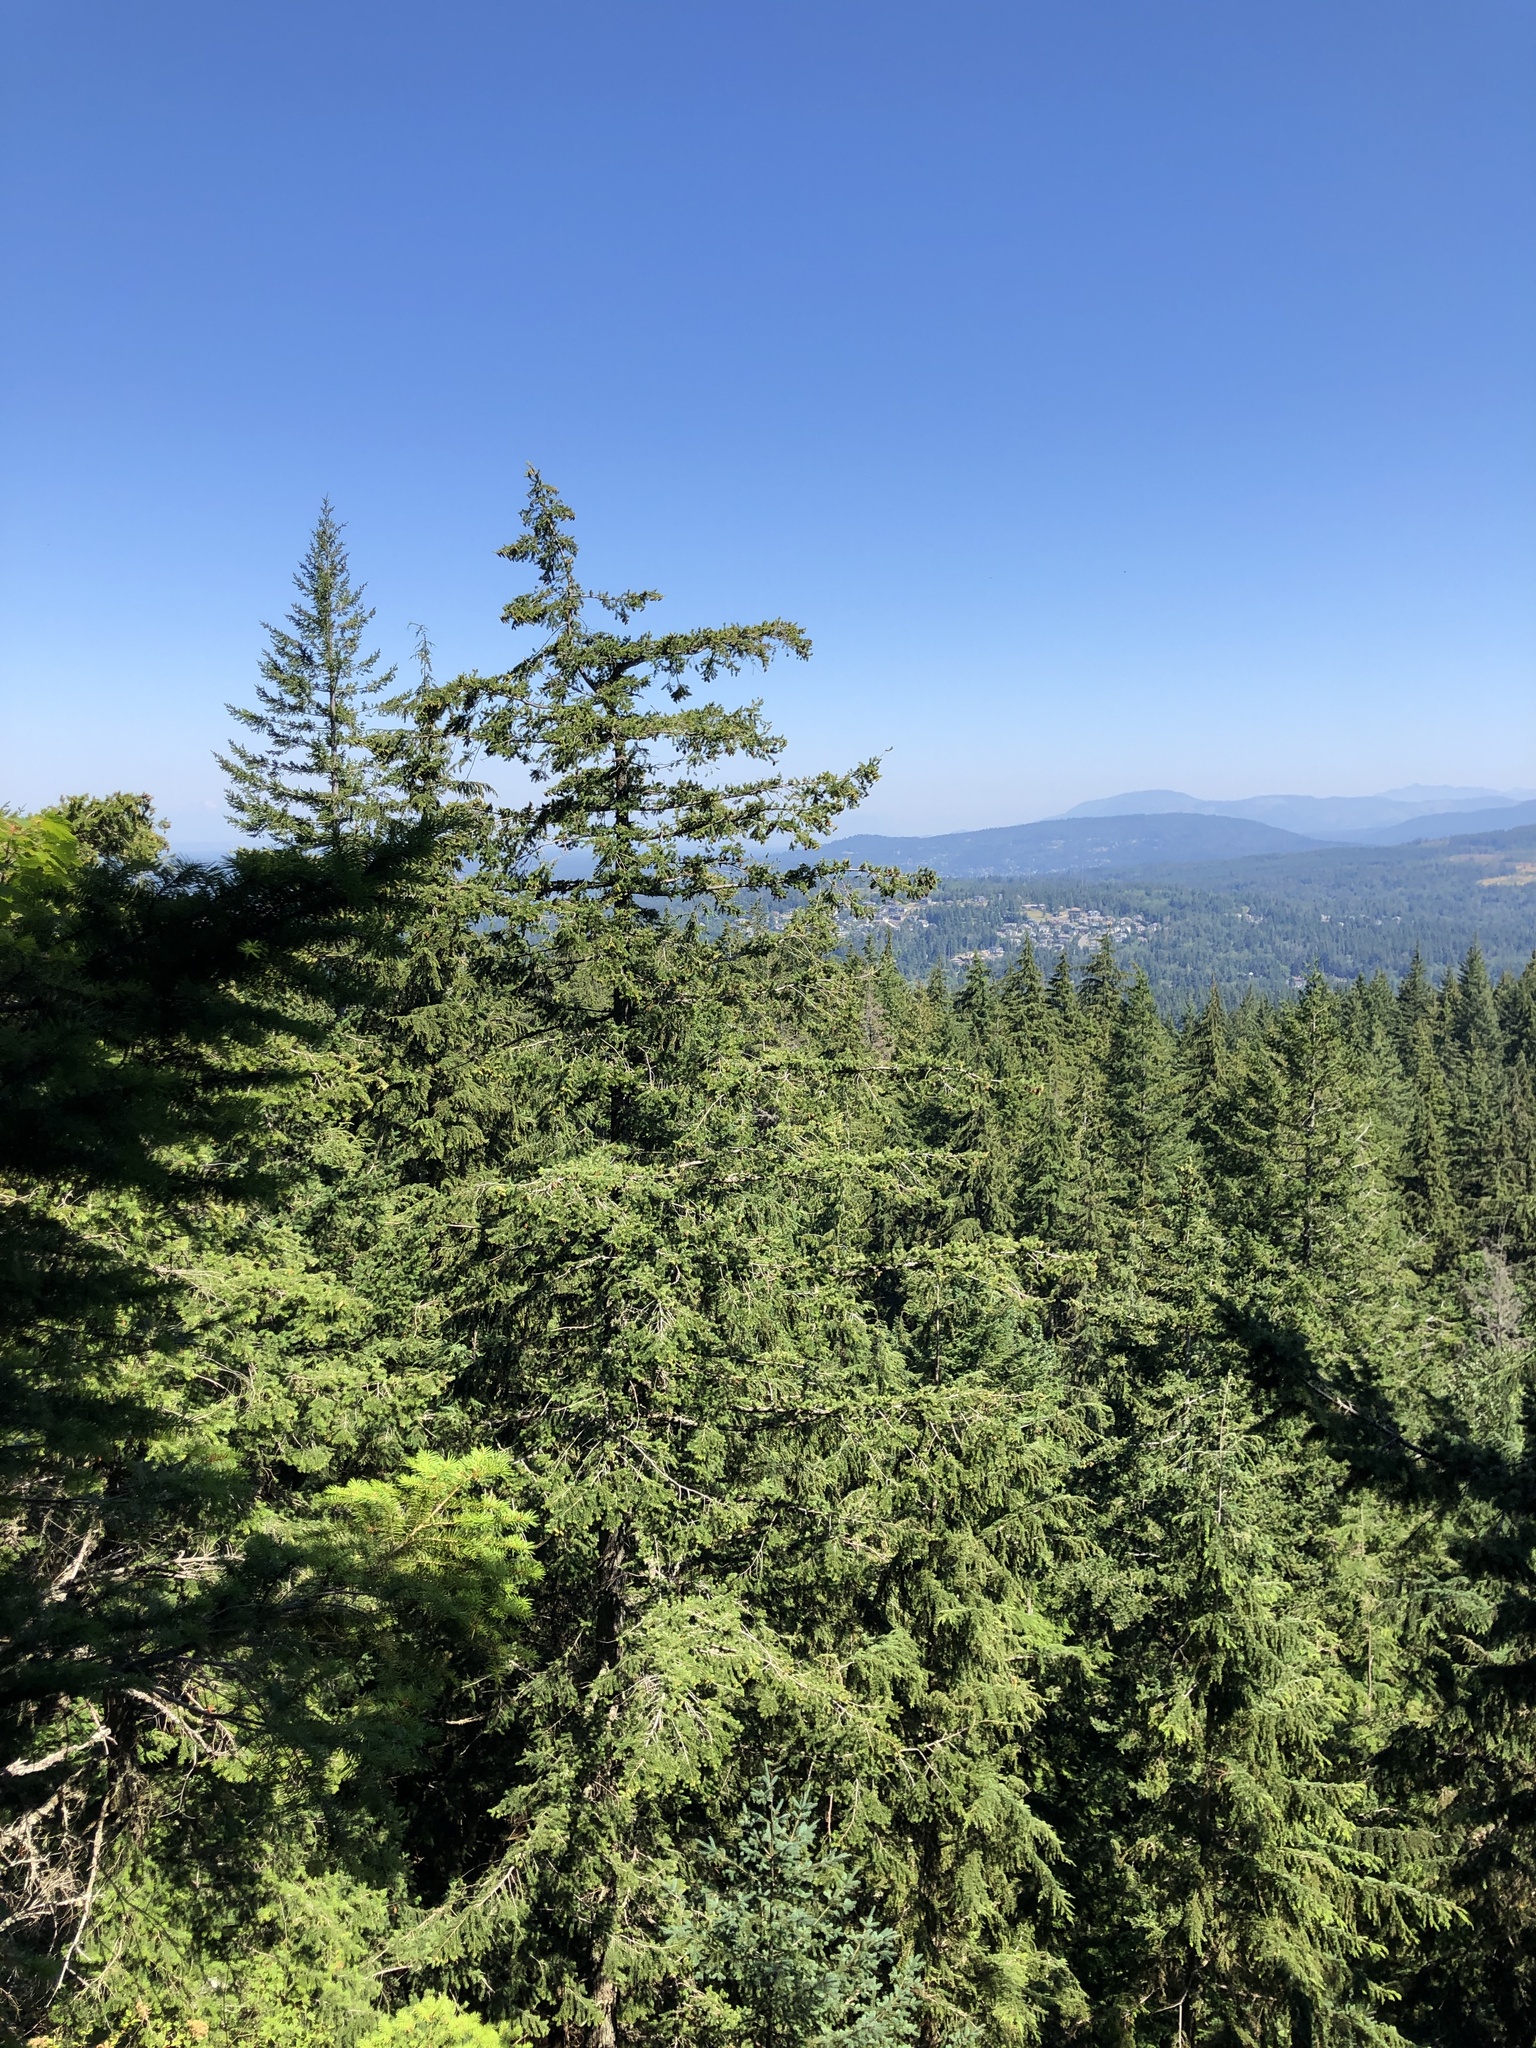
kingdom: Plantae
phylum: Tracheophyta
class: Pinopsida
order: Pinales
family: Pinaceae
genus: Pseudotsuga
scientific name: Pseudotsuga menziesii
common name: Douglas fir
